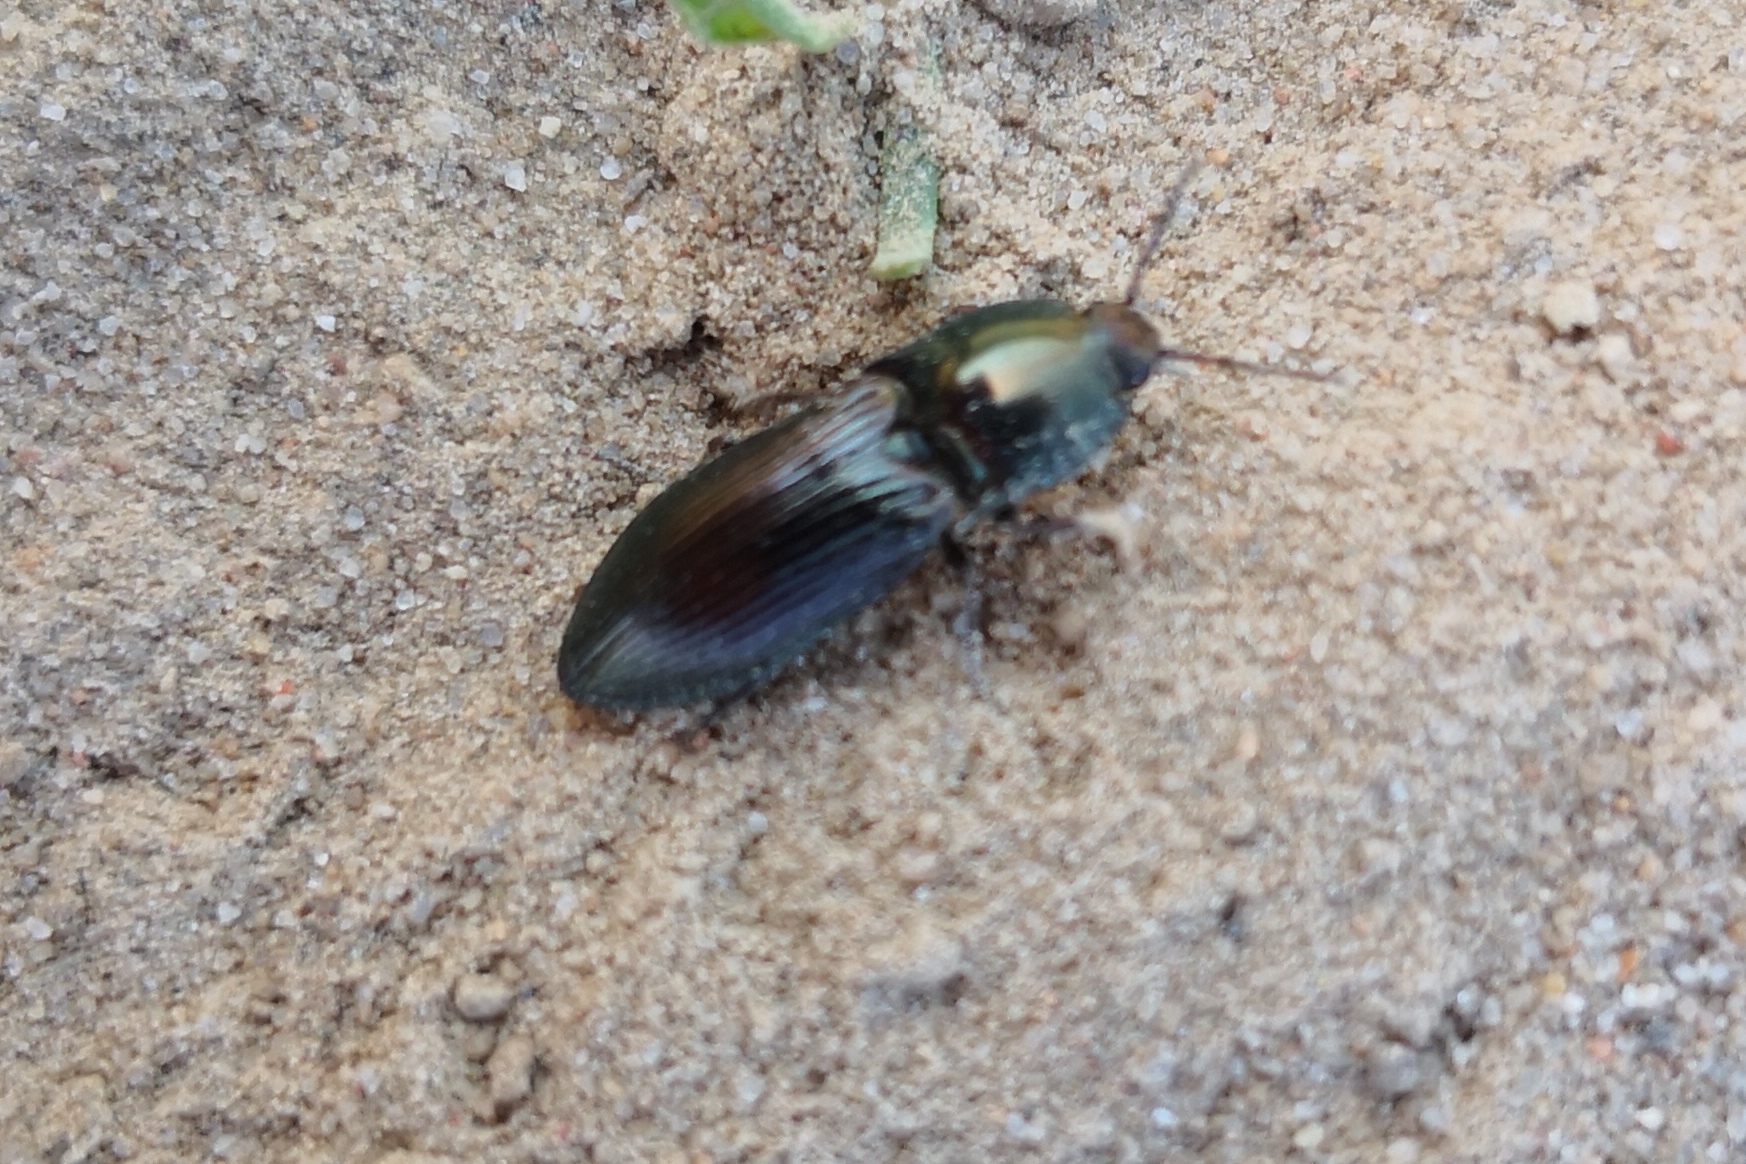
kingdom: Animalia
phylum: Arthropoda
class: Insecta
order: Coleoptera
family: Elateridae
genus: Selatosomus
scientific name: Selatosomus aeneus
